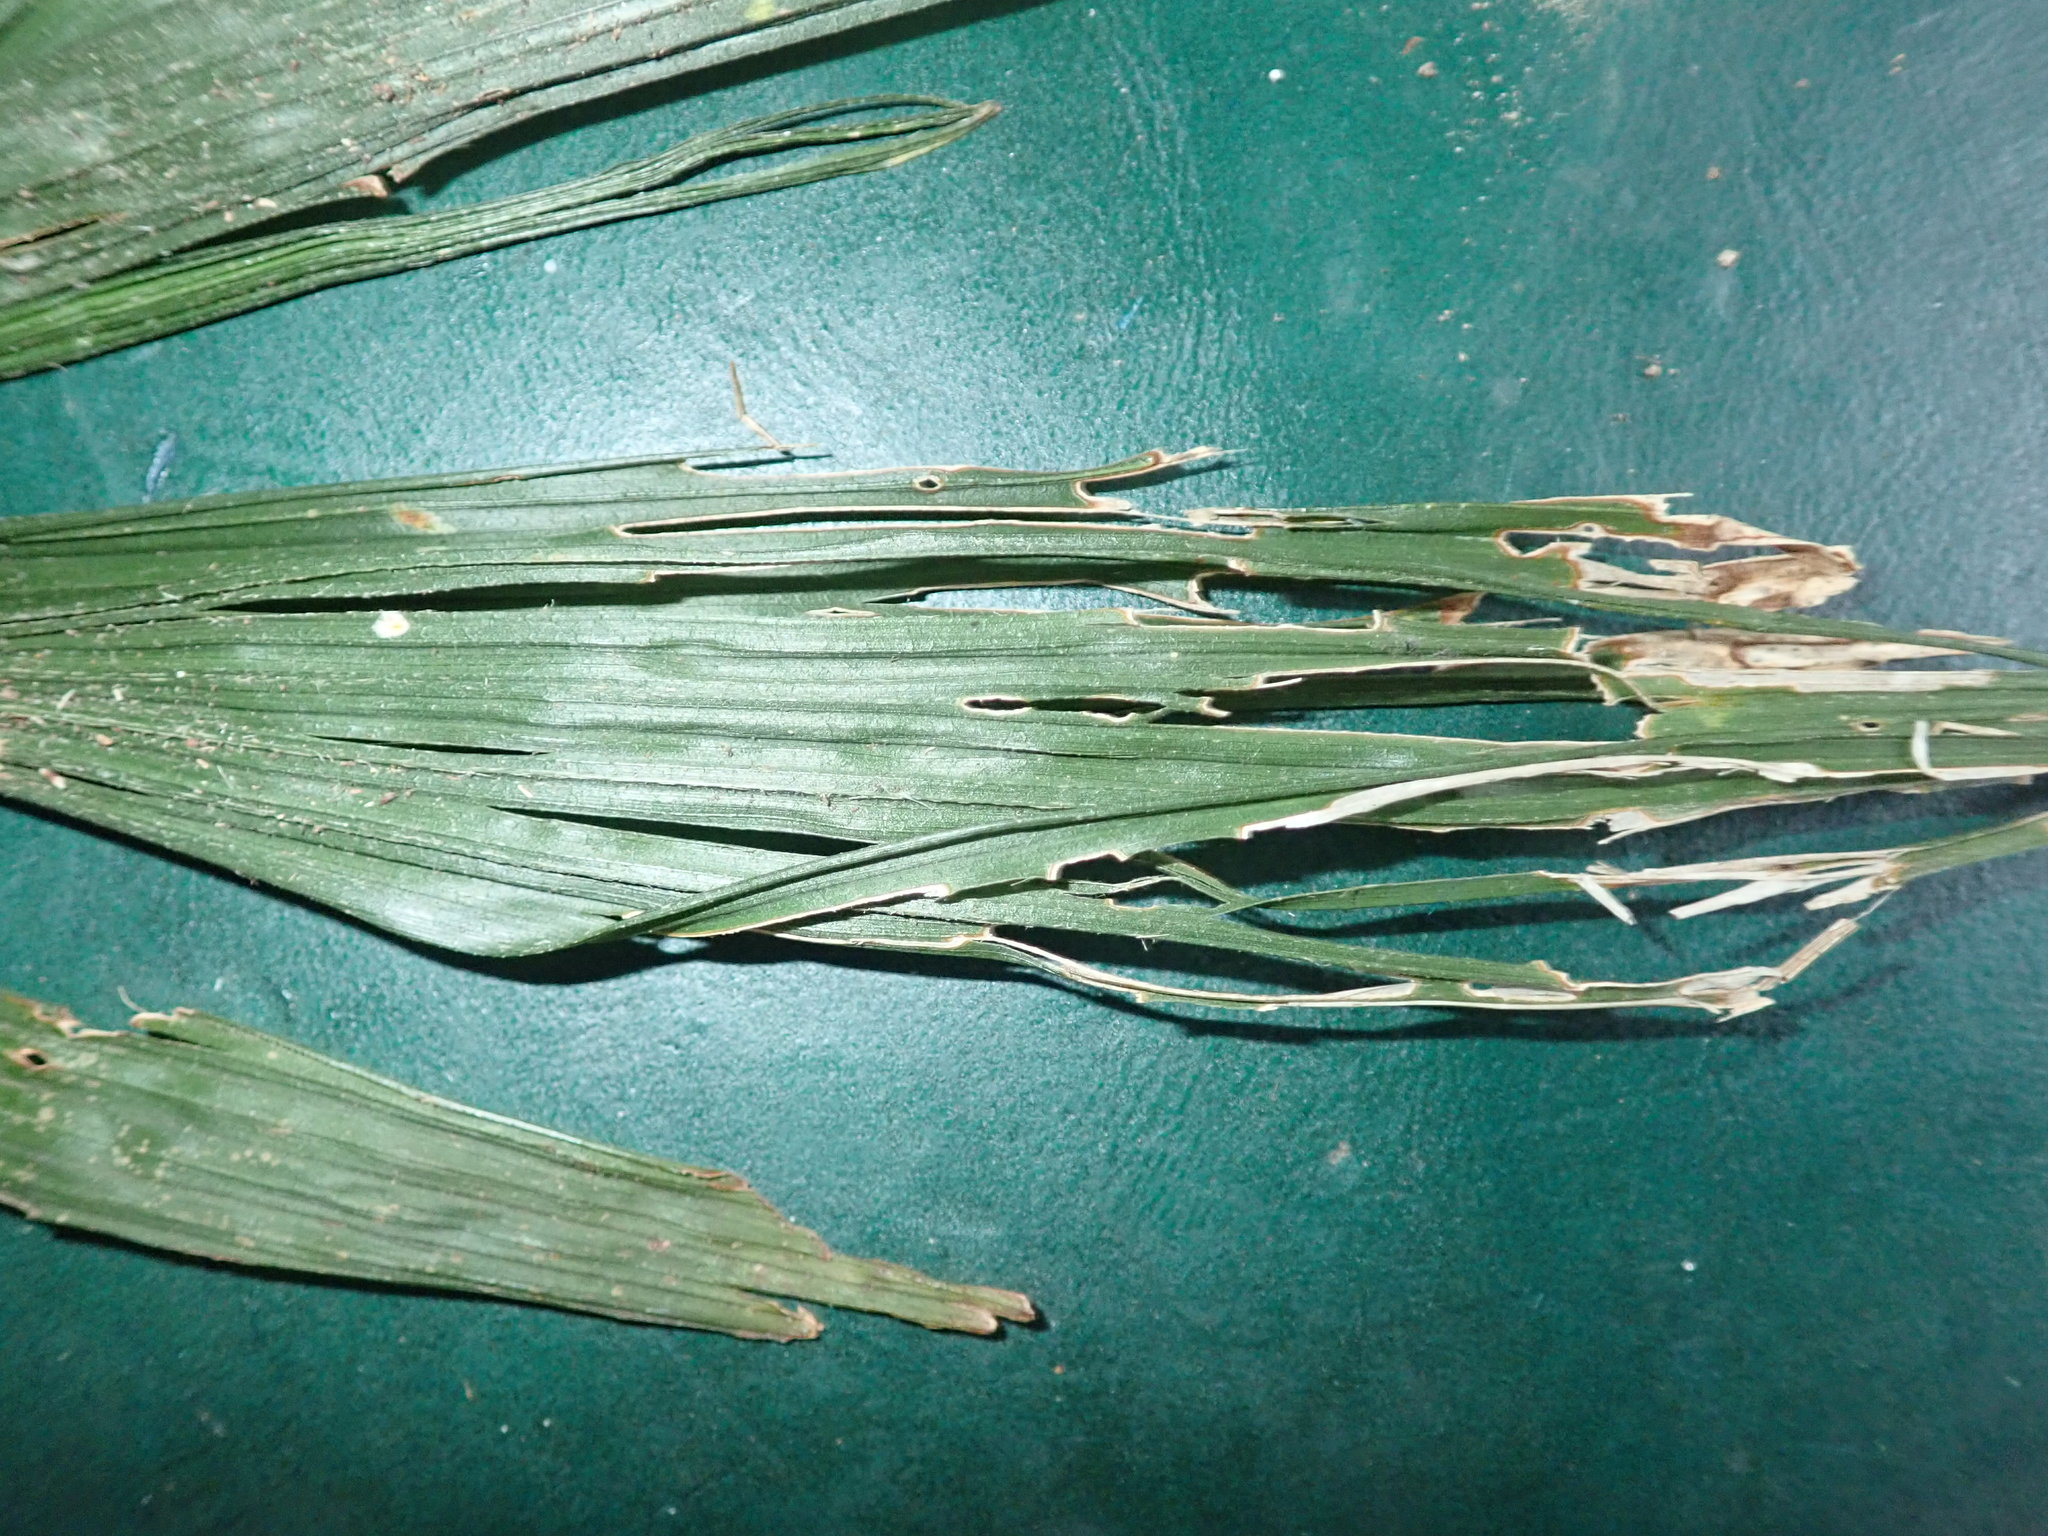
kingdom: Plantae
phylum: Tracheophyta
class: Liliopsida
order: Arecales
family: Arecaceae
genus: Trachycarpus
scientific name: Trachycarpus fortunei
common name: Chusan palm
